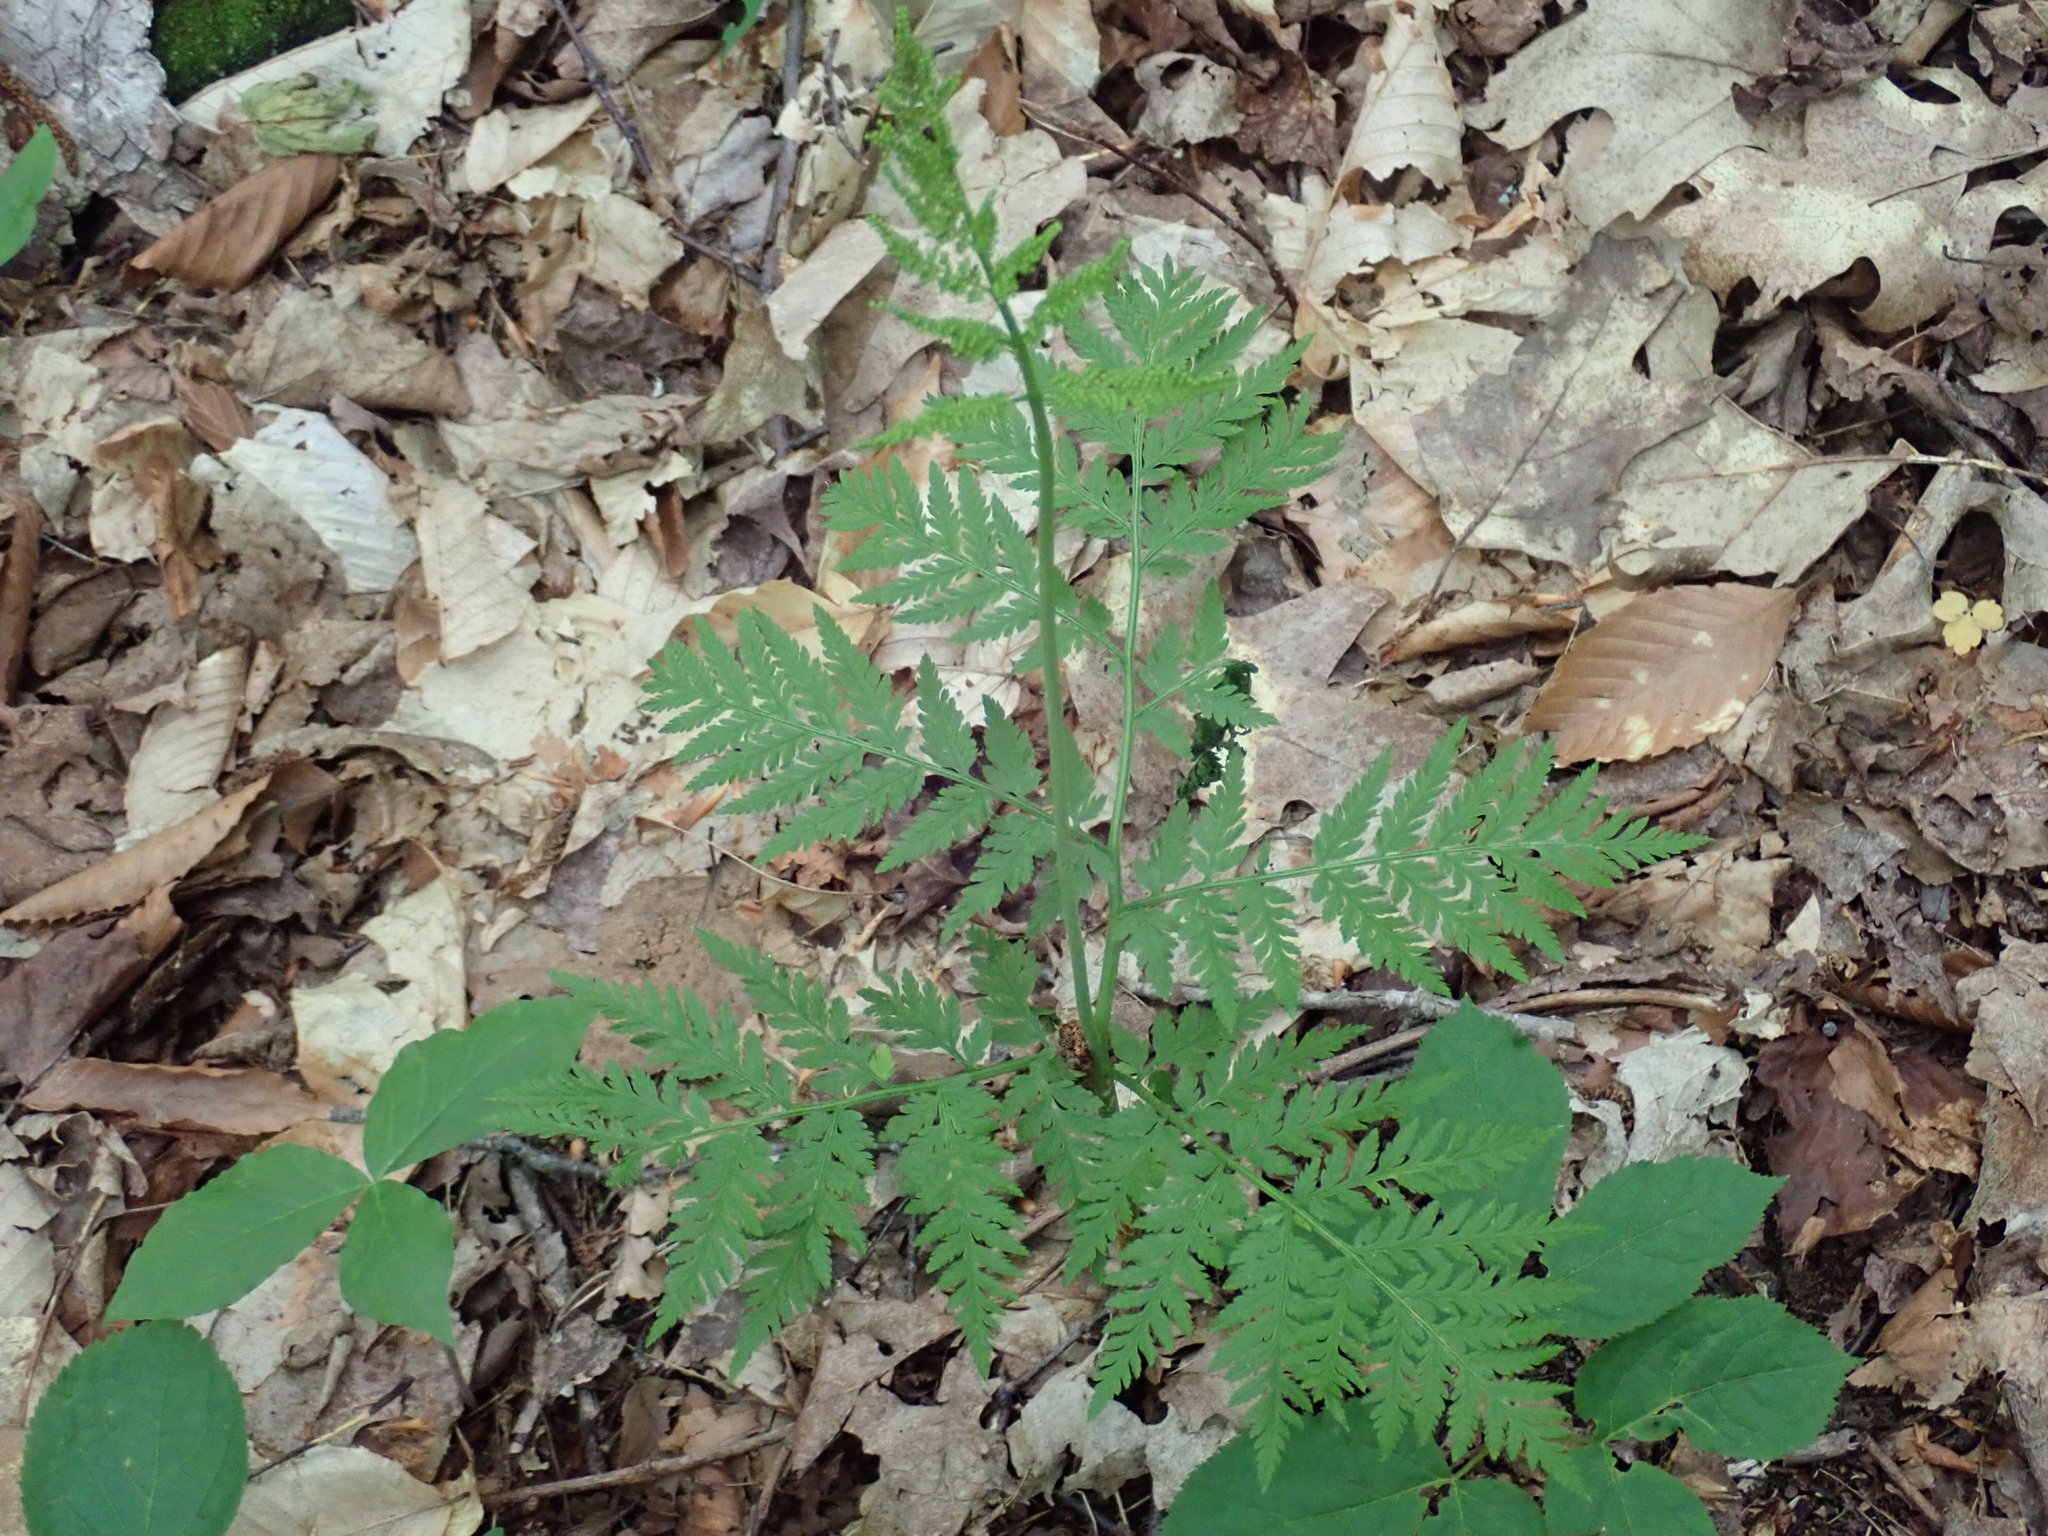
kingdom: Plantae
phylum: Tracheophyta
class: Polypodiopsida
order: Ophioglossales
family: Ophioglossaceae
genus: Botrypus
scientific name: Botrypus virginianus
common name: Common grapefern
